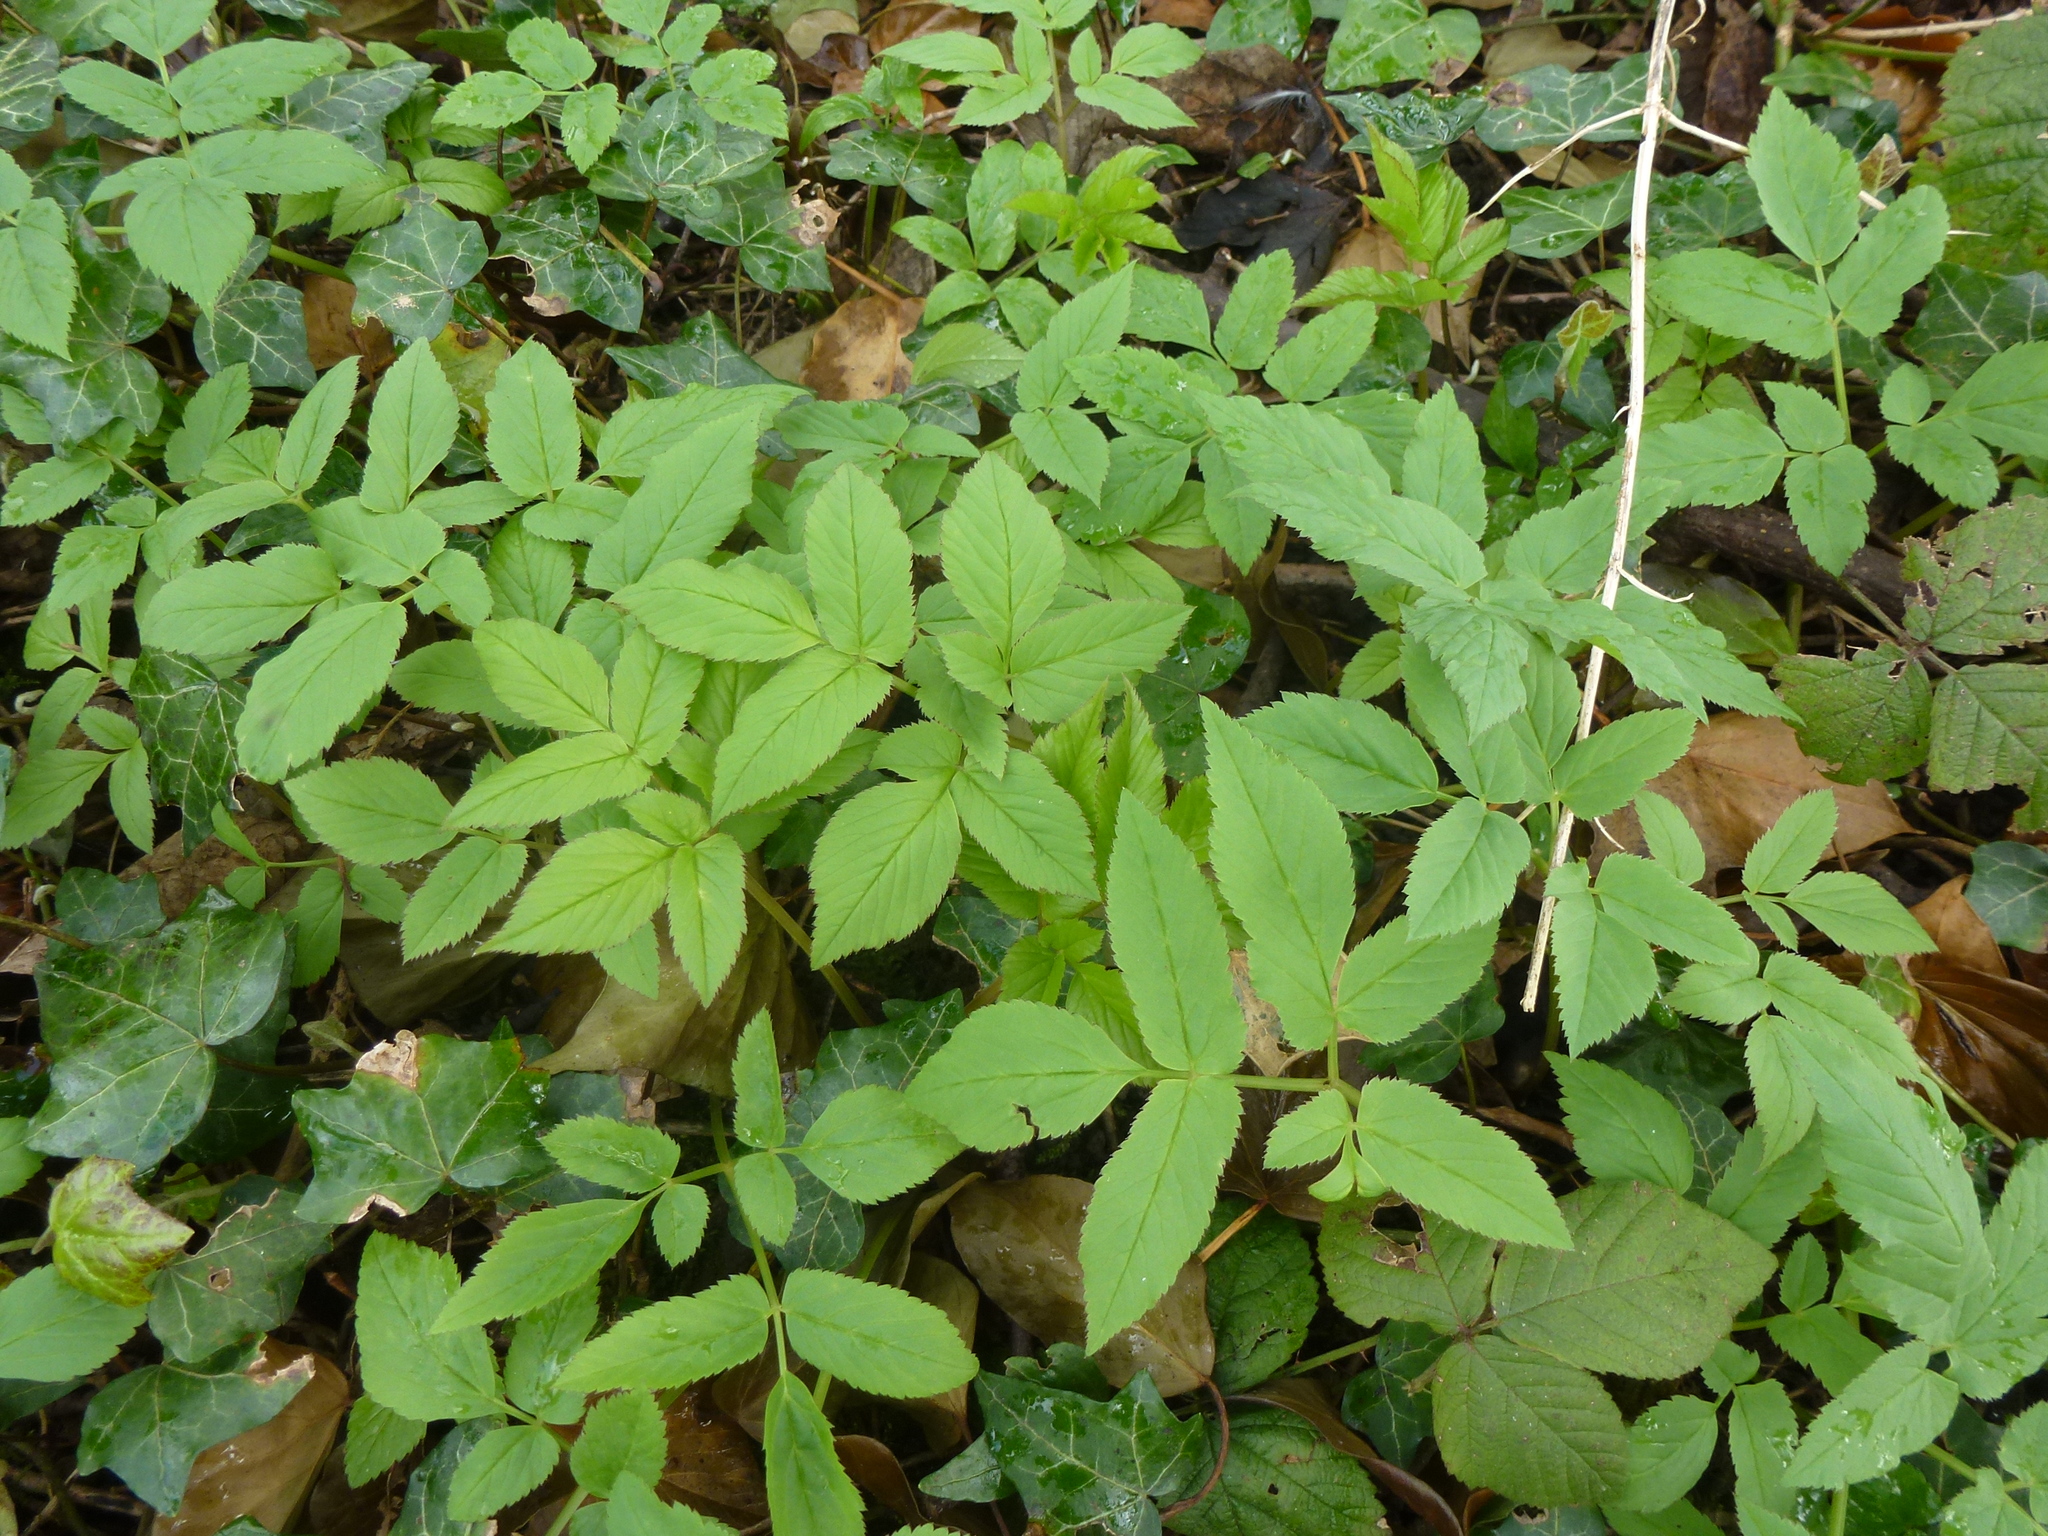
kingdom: Plantae
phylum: Tracheophyta
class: Magnoliopsida
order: Apiales
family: Apiaceae
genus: Aegopodium
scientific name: Aegopodium podagraria
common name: Ground-elder
